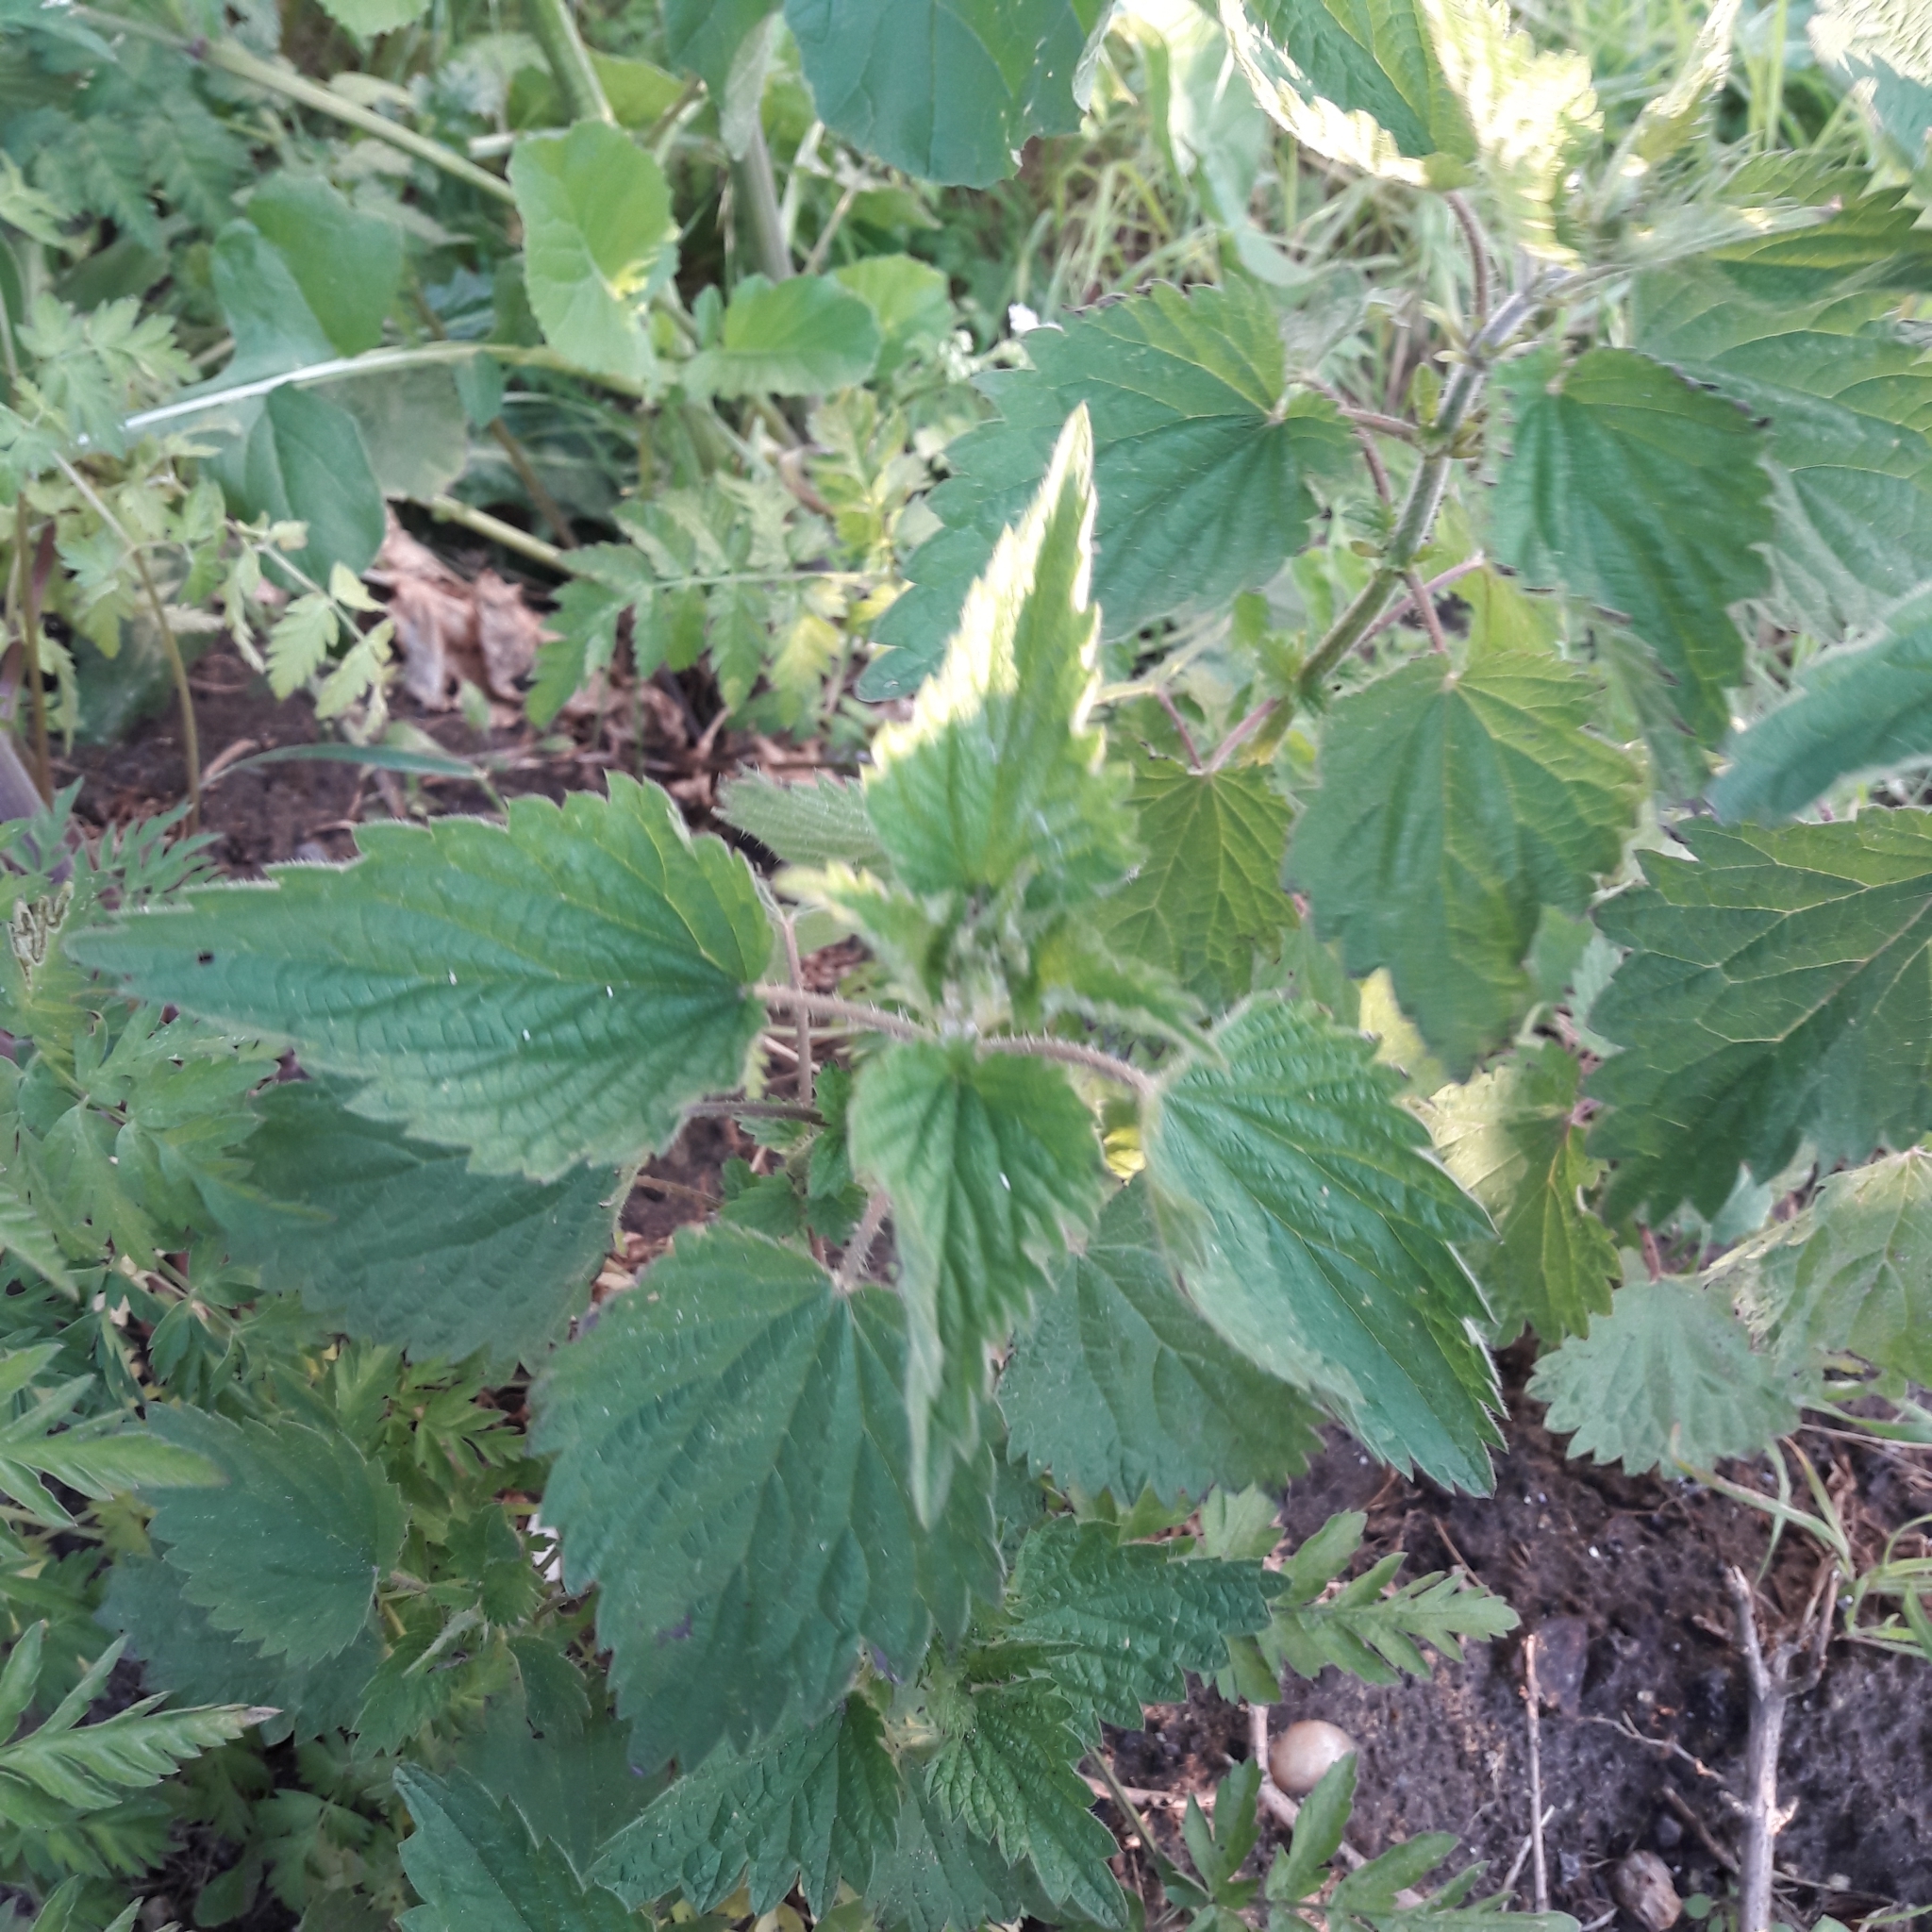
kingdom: Plantae
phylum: Tracheophyta
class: Magnoliopsida
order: Rosales
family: Urticaceae
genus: Urtica
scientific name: Urtica dioica
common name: Common nettle
